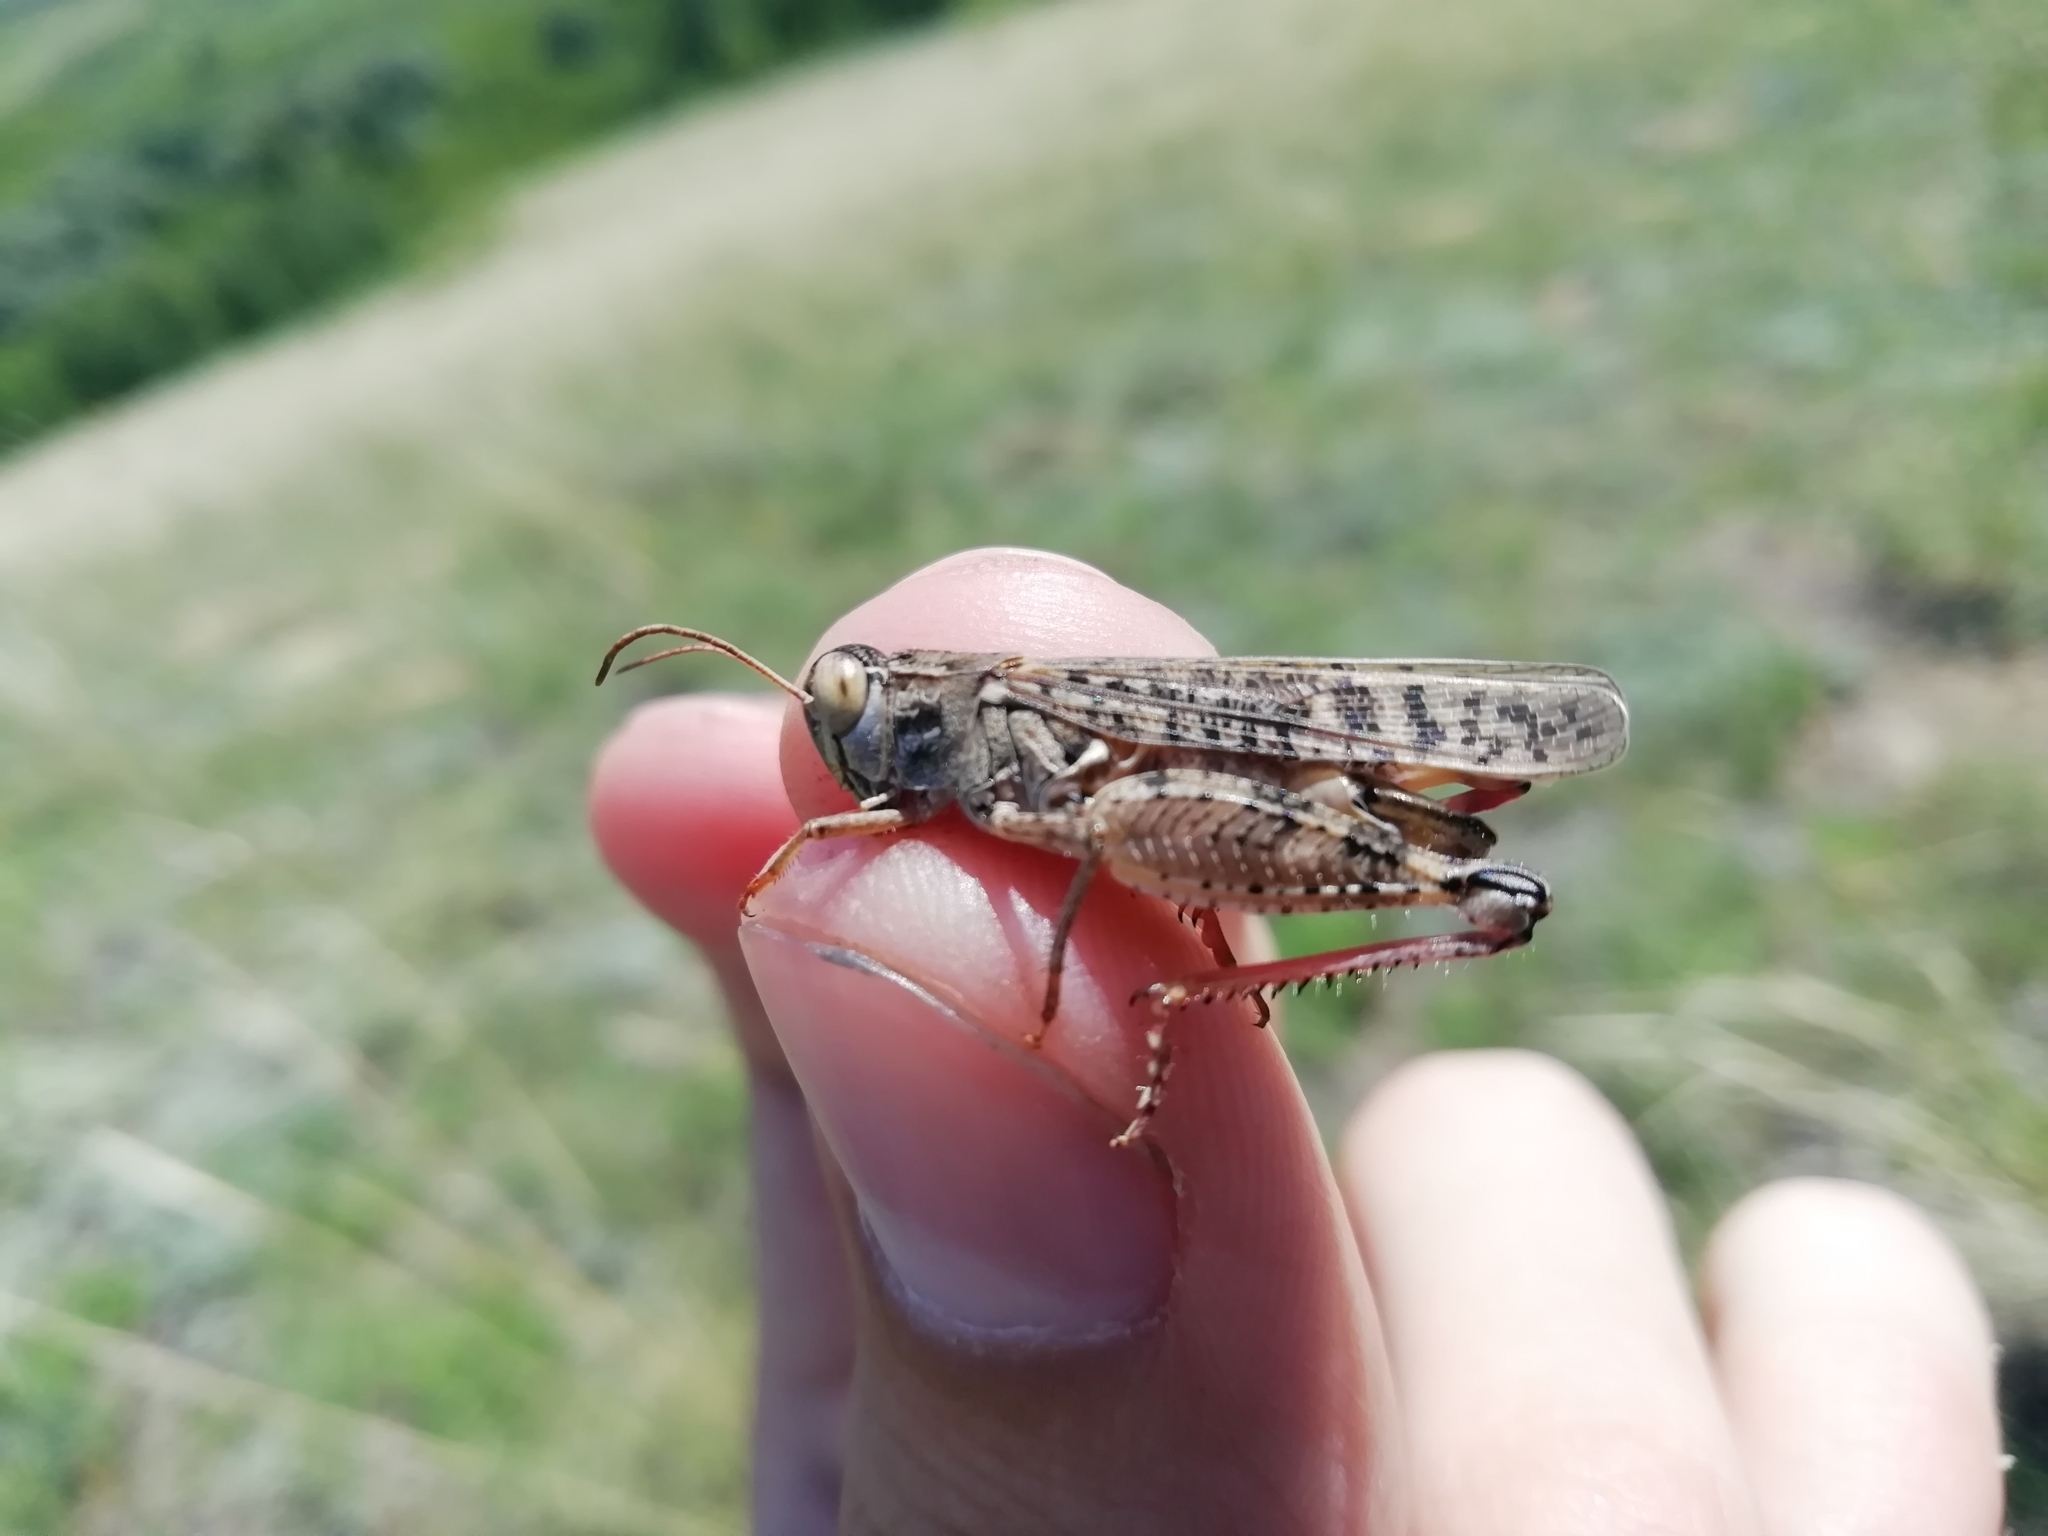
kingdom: Animalia
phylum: Arthropoda
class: Insecta
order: Orthoptera
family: Acrididae
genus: Calliptamus
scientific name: Calliptamus italicus
